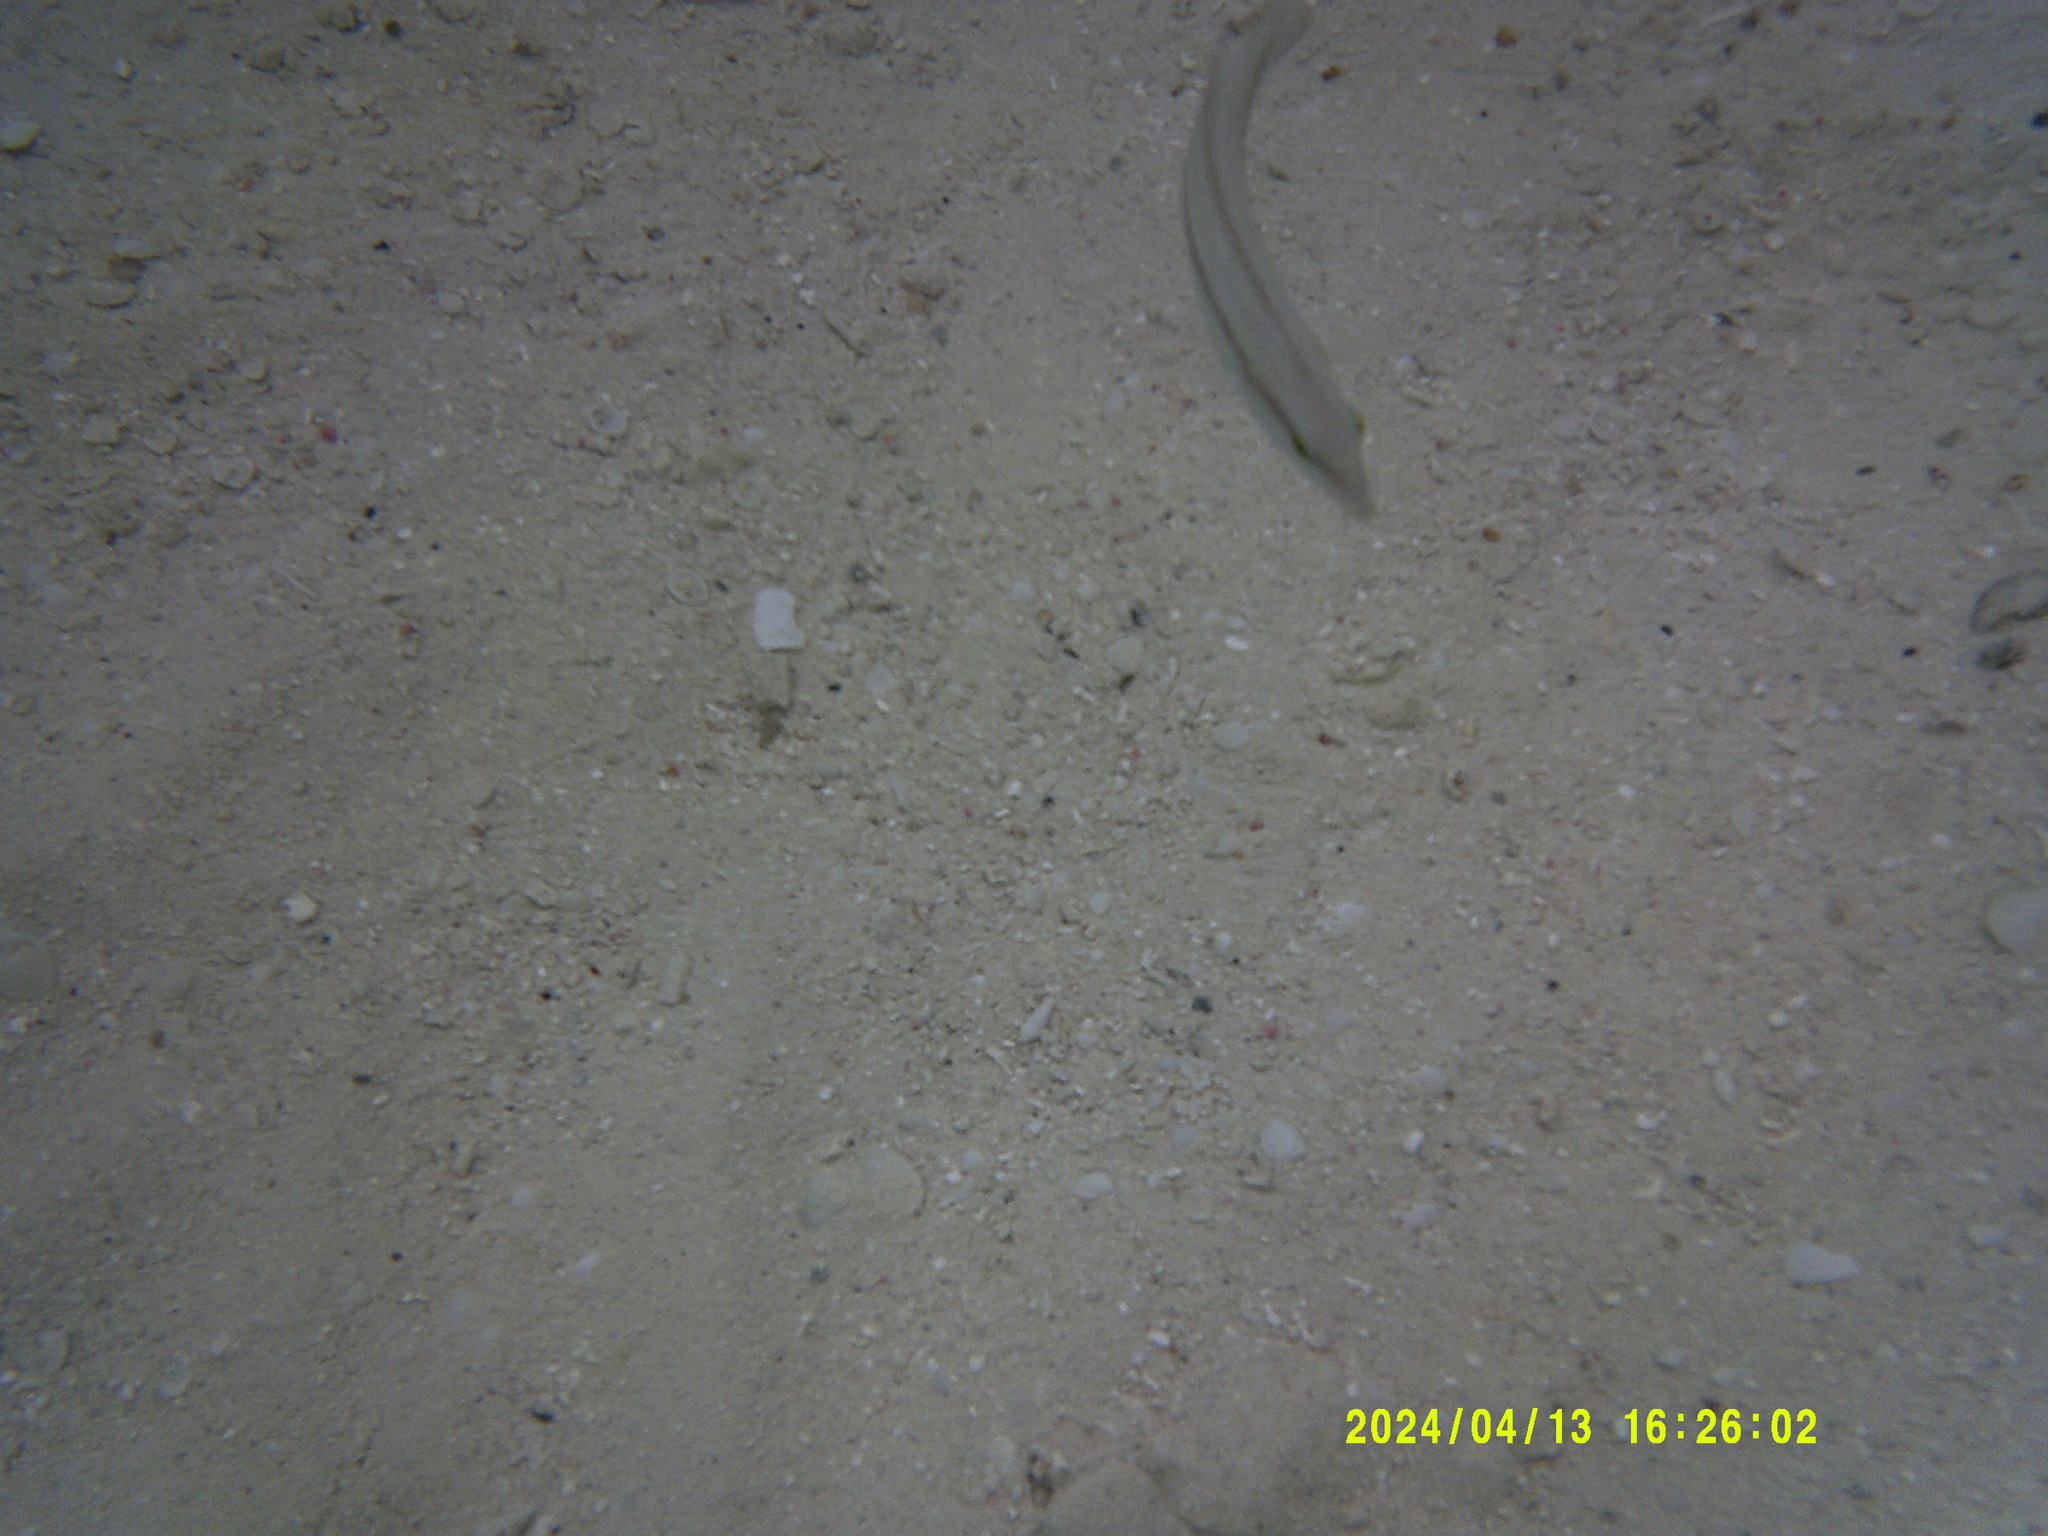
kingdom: Animalia
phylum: Chordata
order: Perciformes
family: Labridae
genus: Halichoeres
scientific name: Halichoeres bivittatus
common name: Slippery dick
